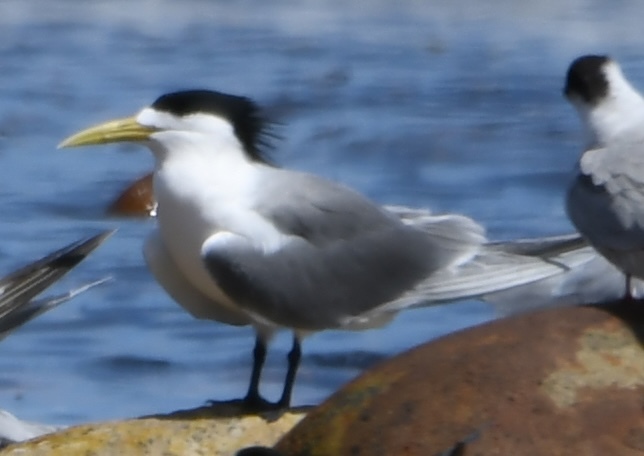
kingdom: Animalia
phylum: Chordata
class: Aves
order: Charadriiformes
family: Laridae
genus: Thalasseus
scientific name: Thalasseus bergii
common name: Greater crested tern
